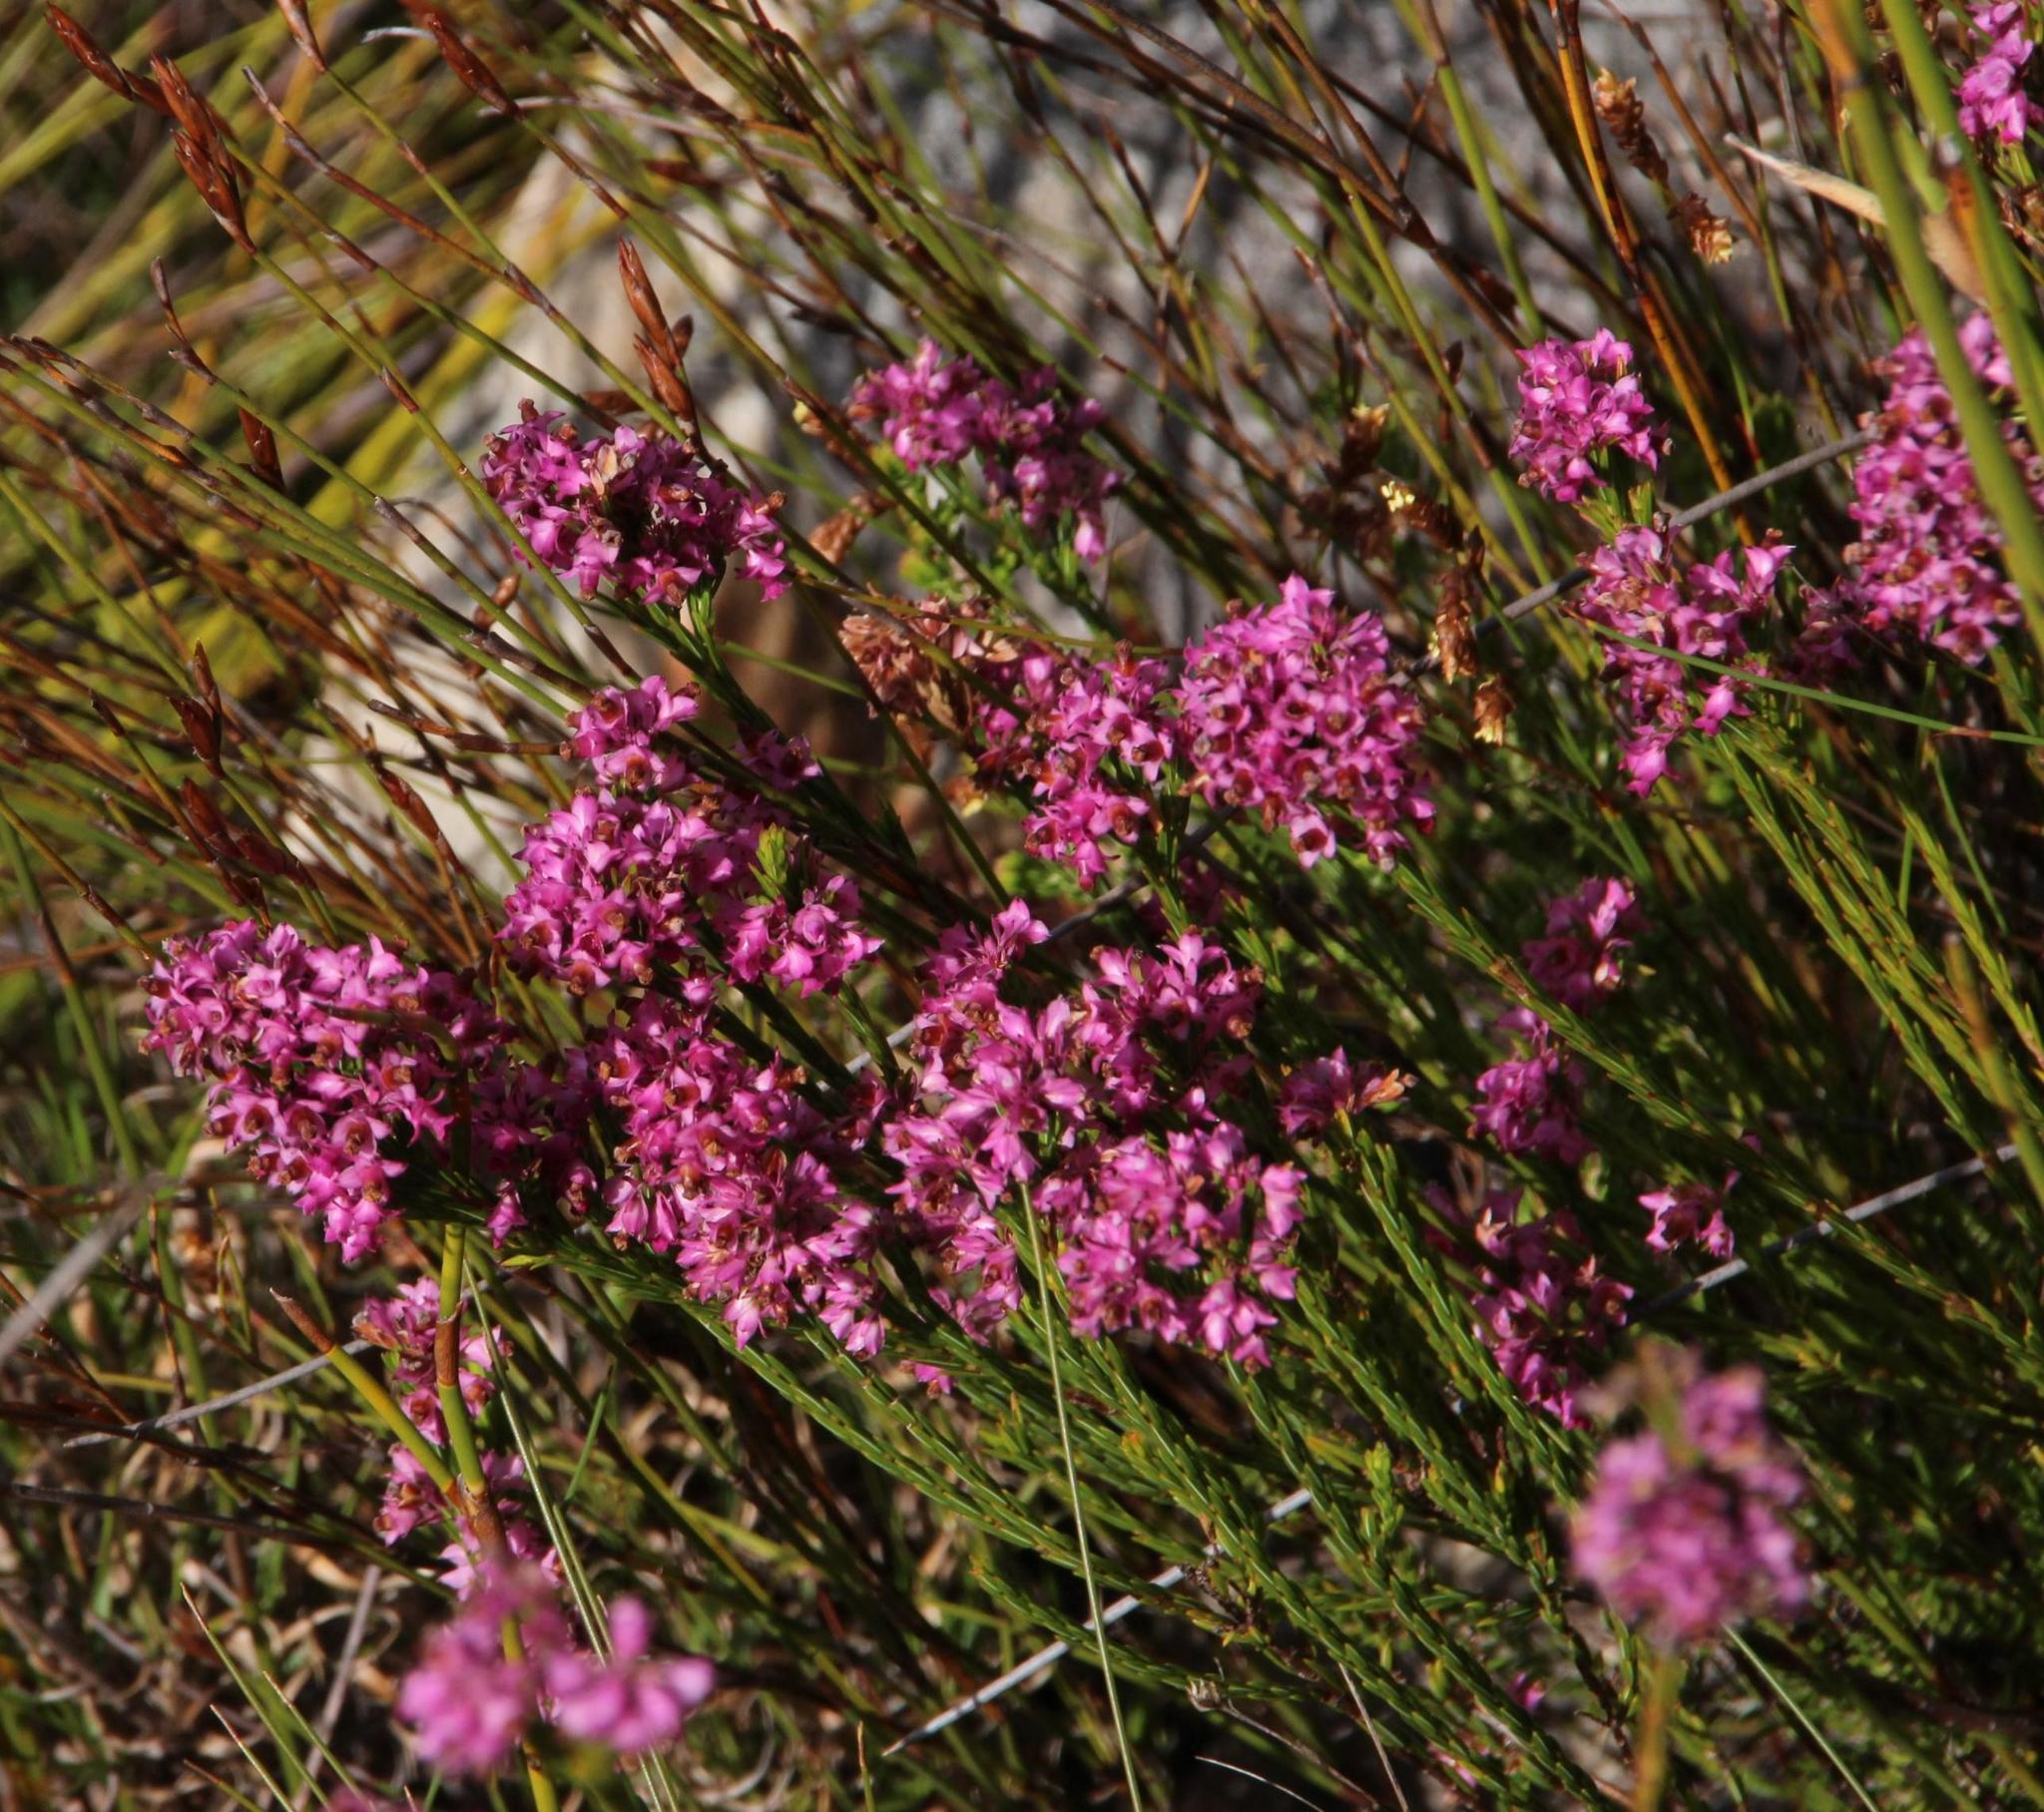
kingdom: Plantae
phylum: Tracheophyta
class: Magnoliopsida
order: Ericales
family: Ericaceae
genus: Erica
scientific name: Erica corifolia
